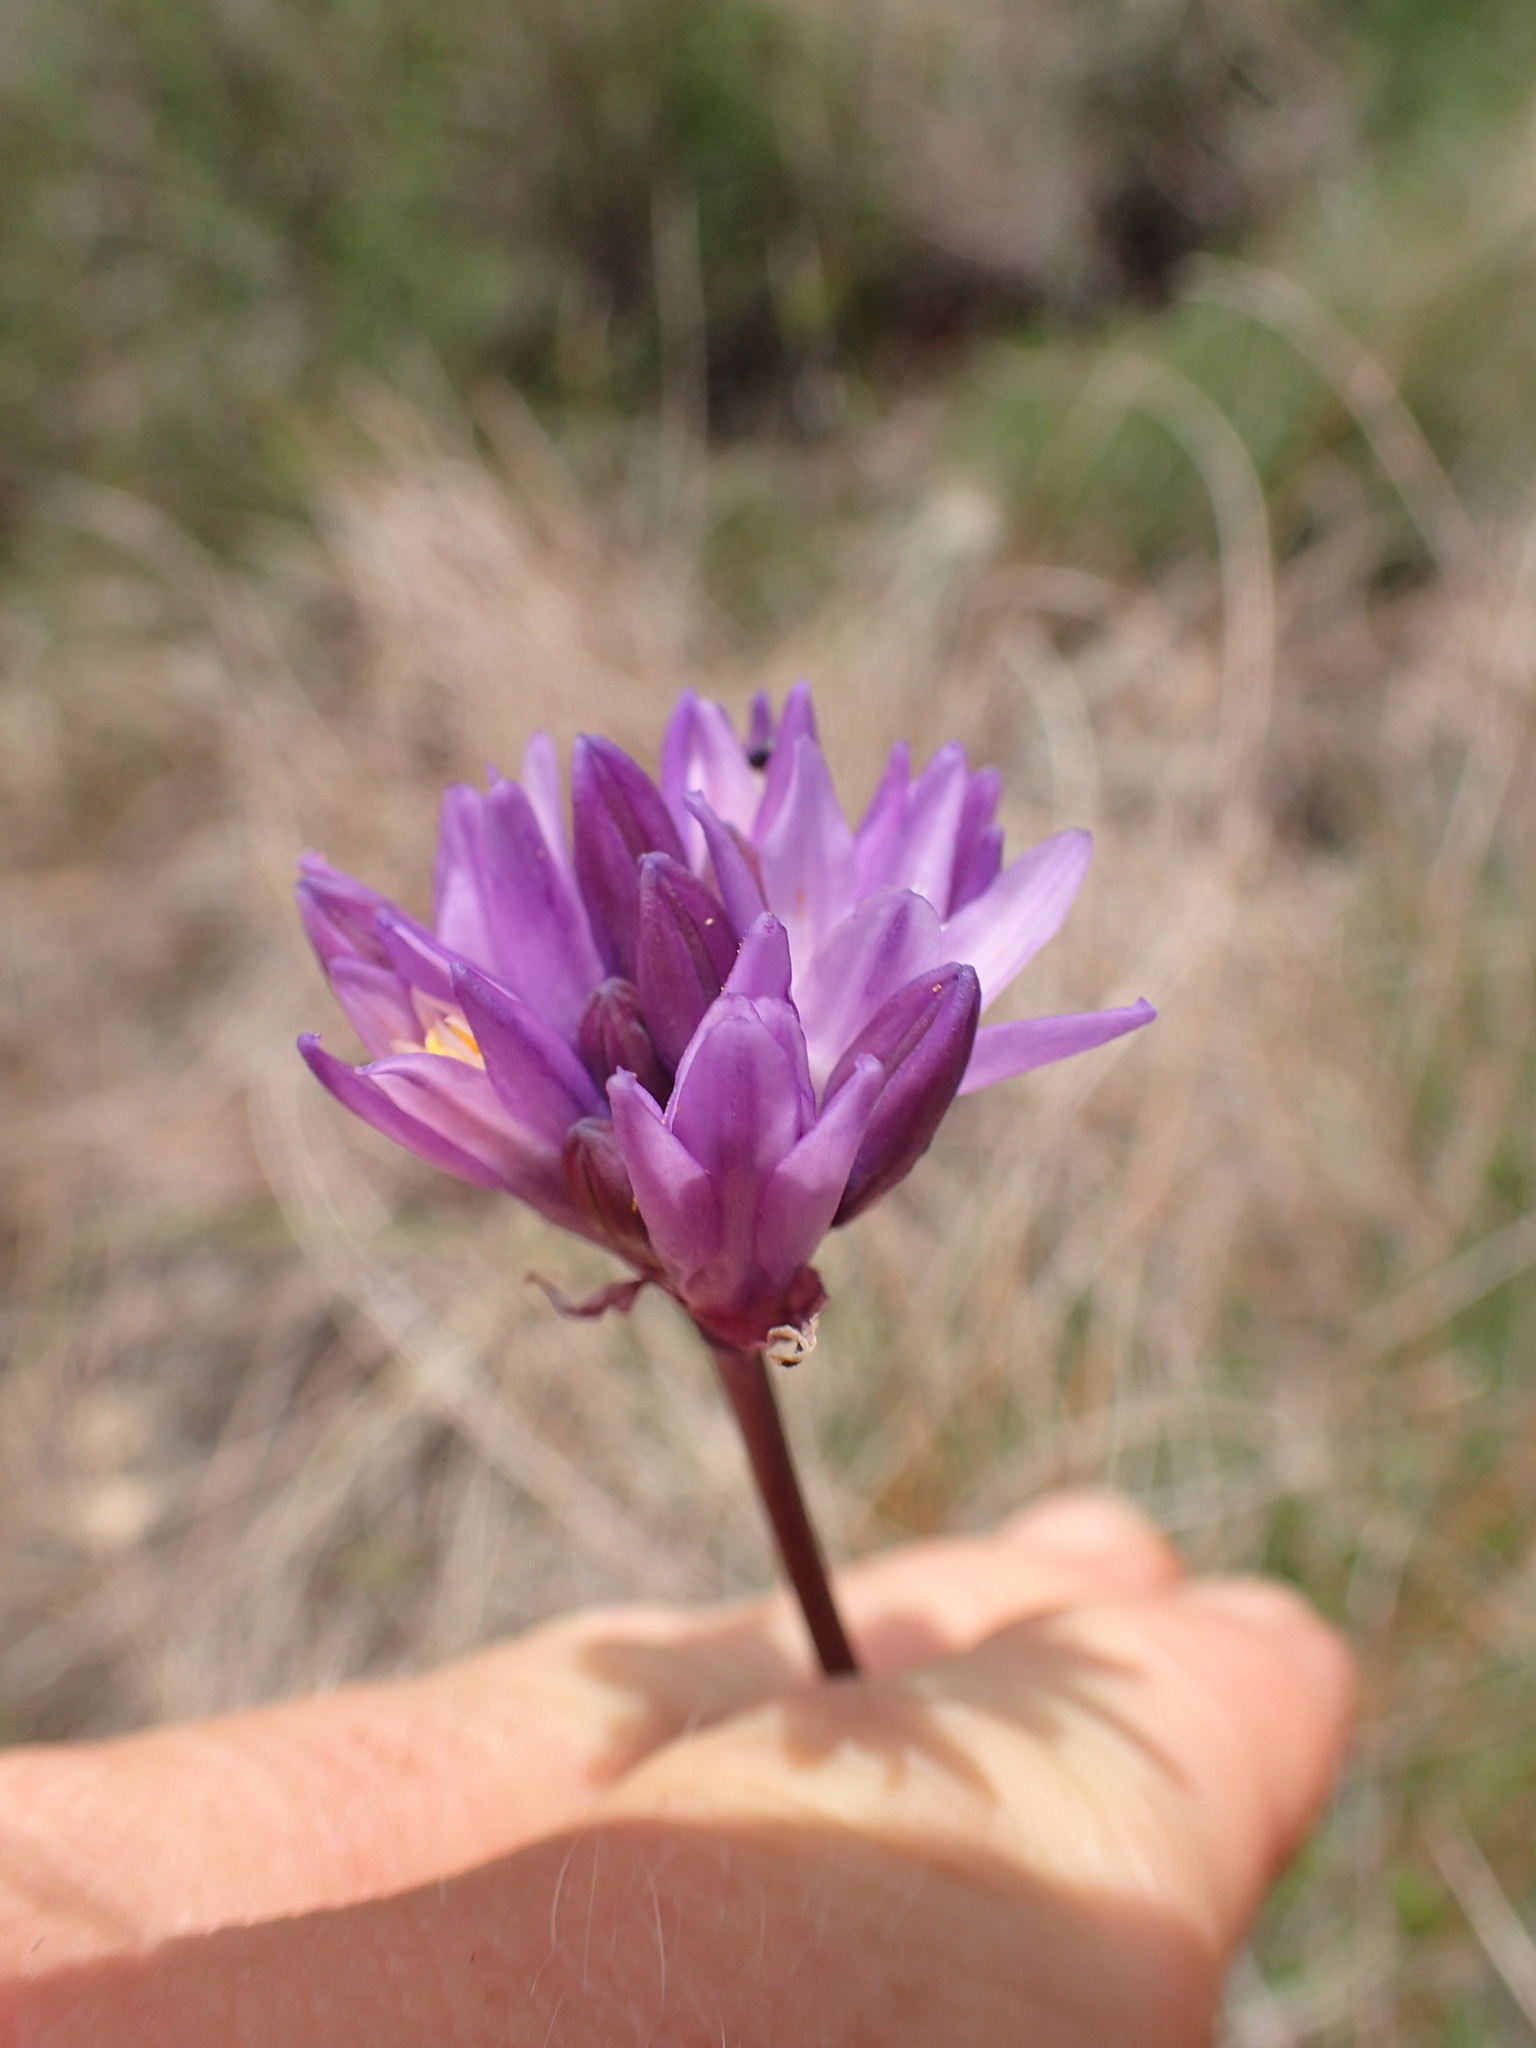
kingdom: Plantae
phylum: Tracheophyta
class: Liliopsida
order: Asparagales
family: Asparagaceae
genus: Dipterostemon
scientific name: Dipterostemon capitatus
